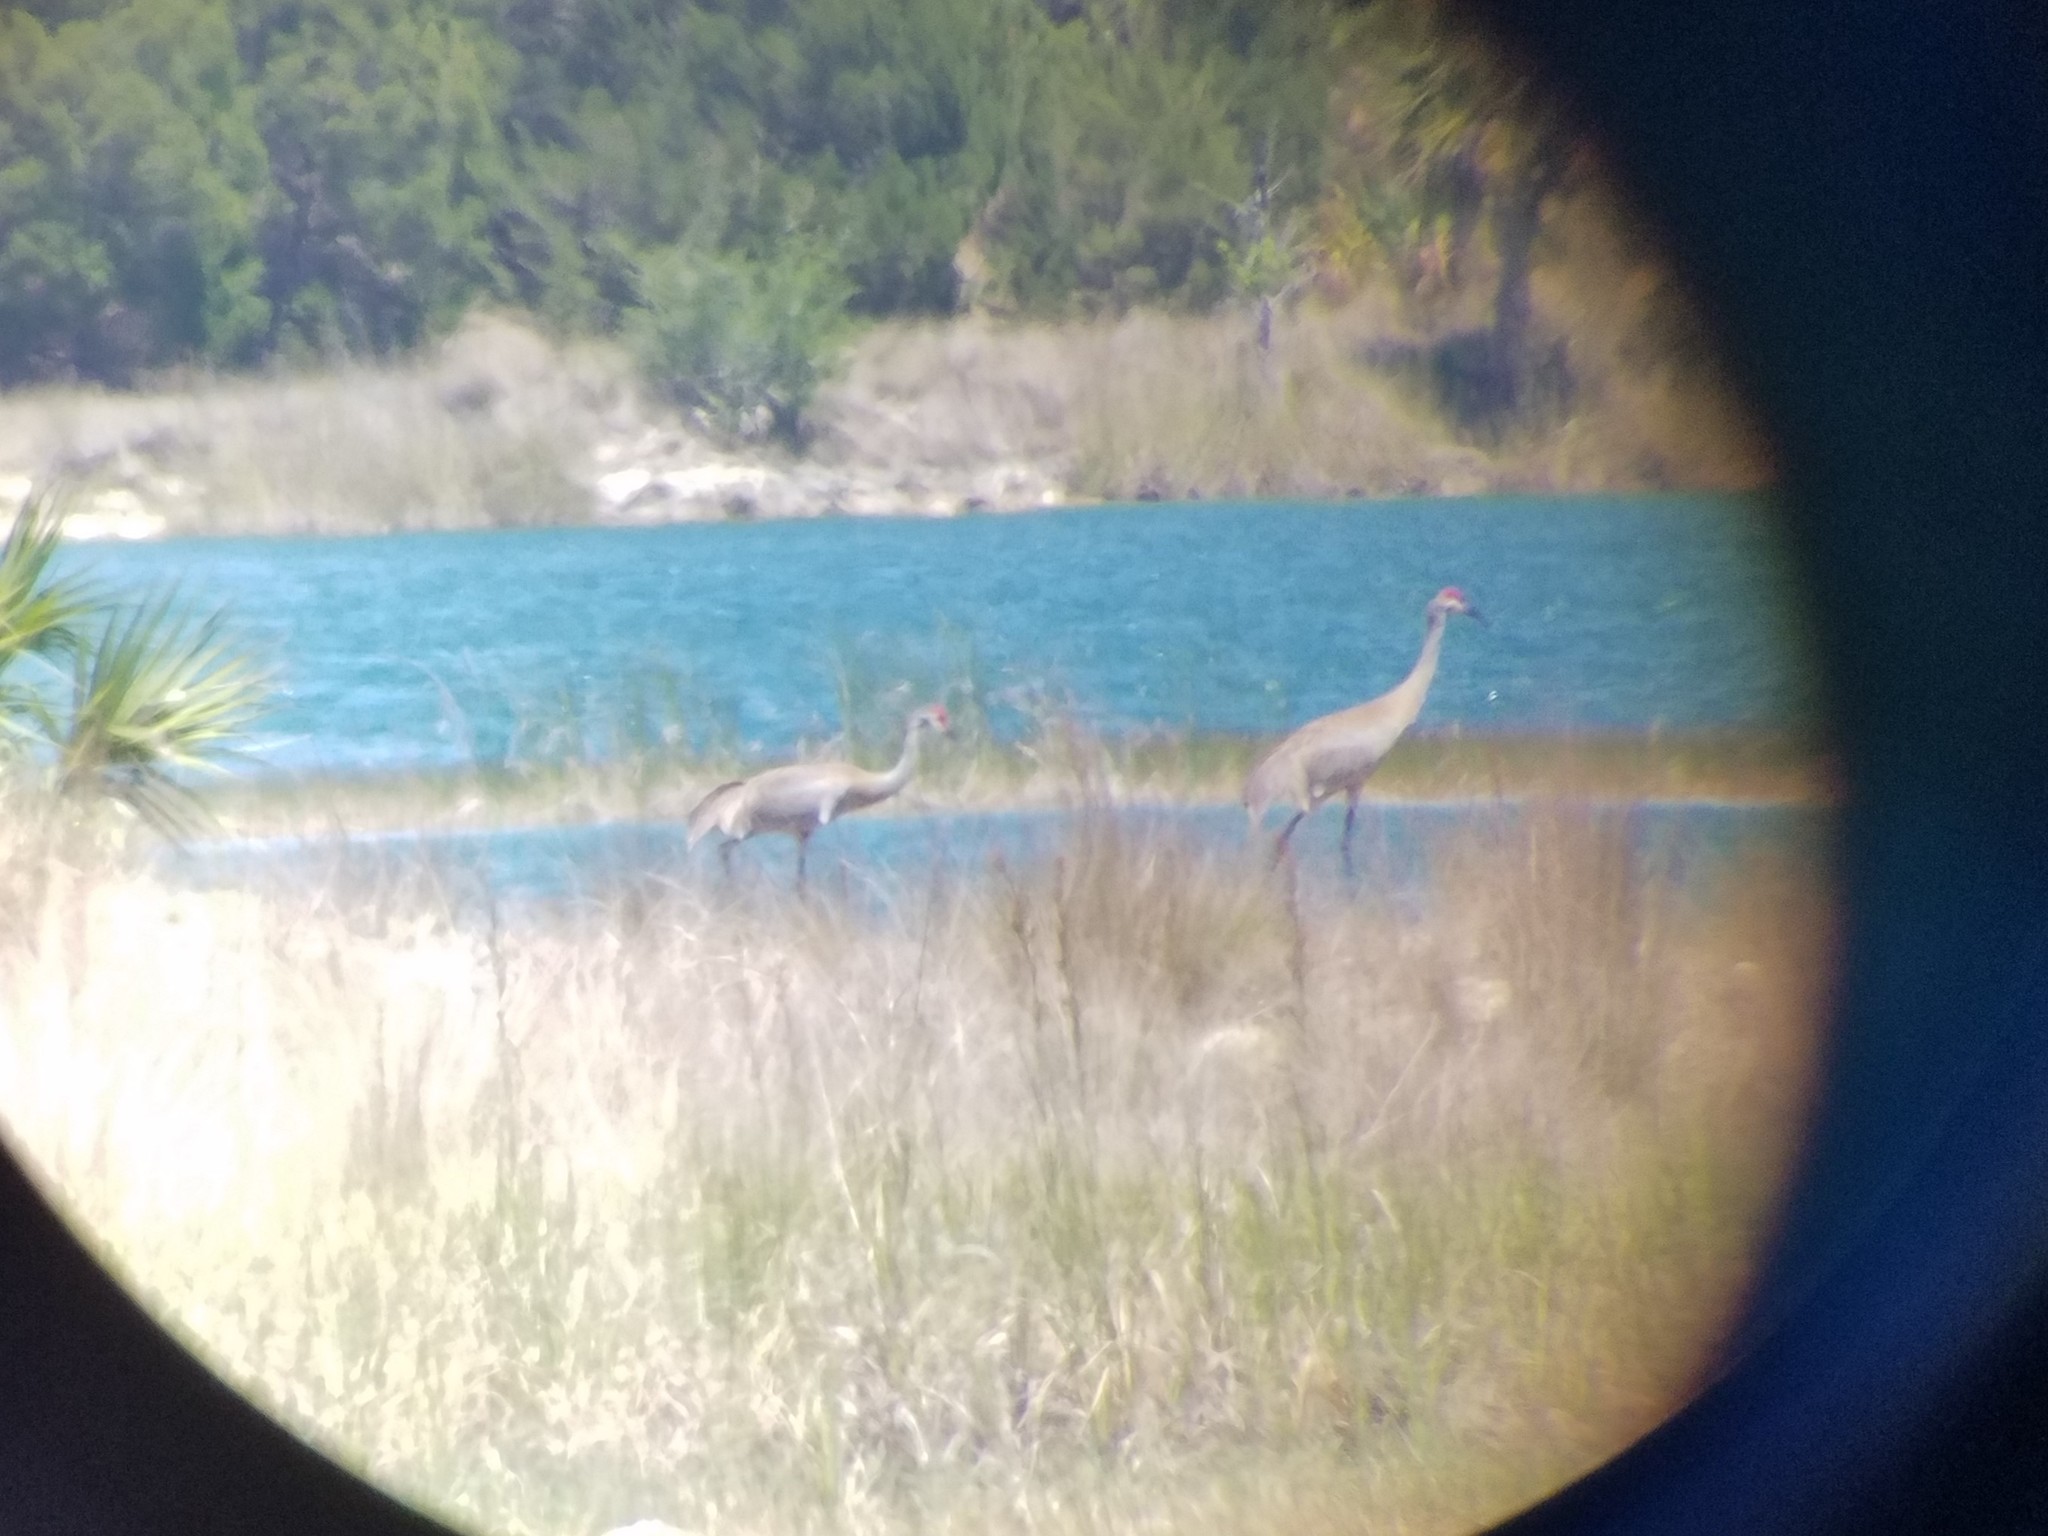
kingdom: Animalia
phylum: Chordata
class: Aves
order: Gruiformes
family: Gruidae
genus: Grus
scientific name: Grus canadensis
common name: Sandhill crane
